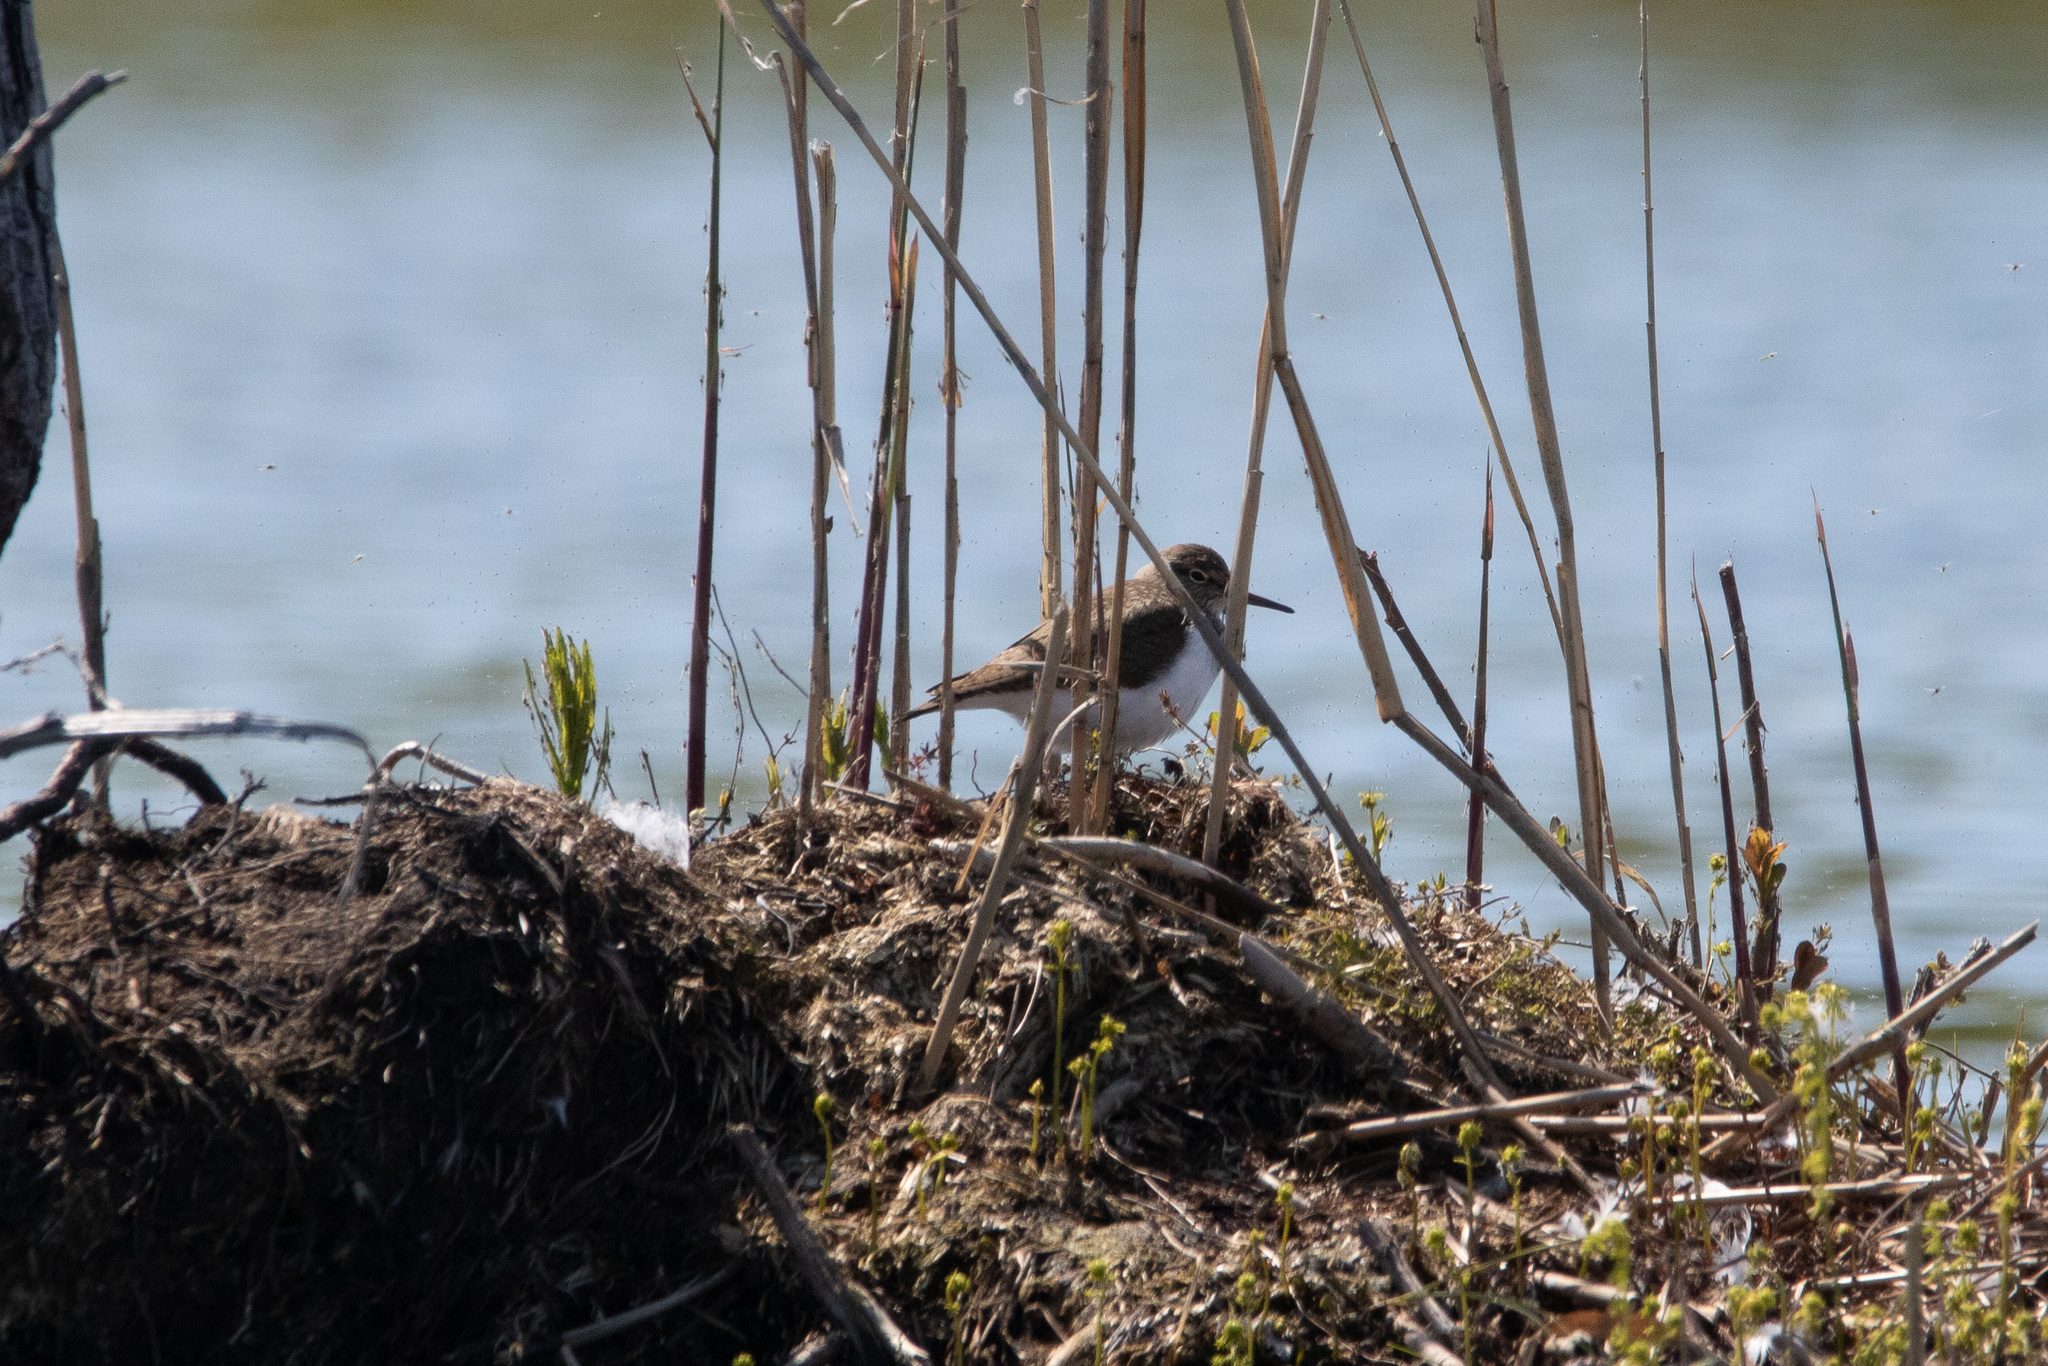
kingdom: Animalia
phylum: Chordata
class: Aves
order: Charadriiformes
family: Scolopacidae
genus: Actitis
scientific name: Actitis hypoleucos
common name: Common sandpiper
